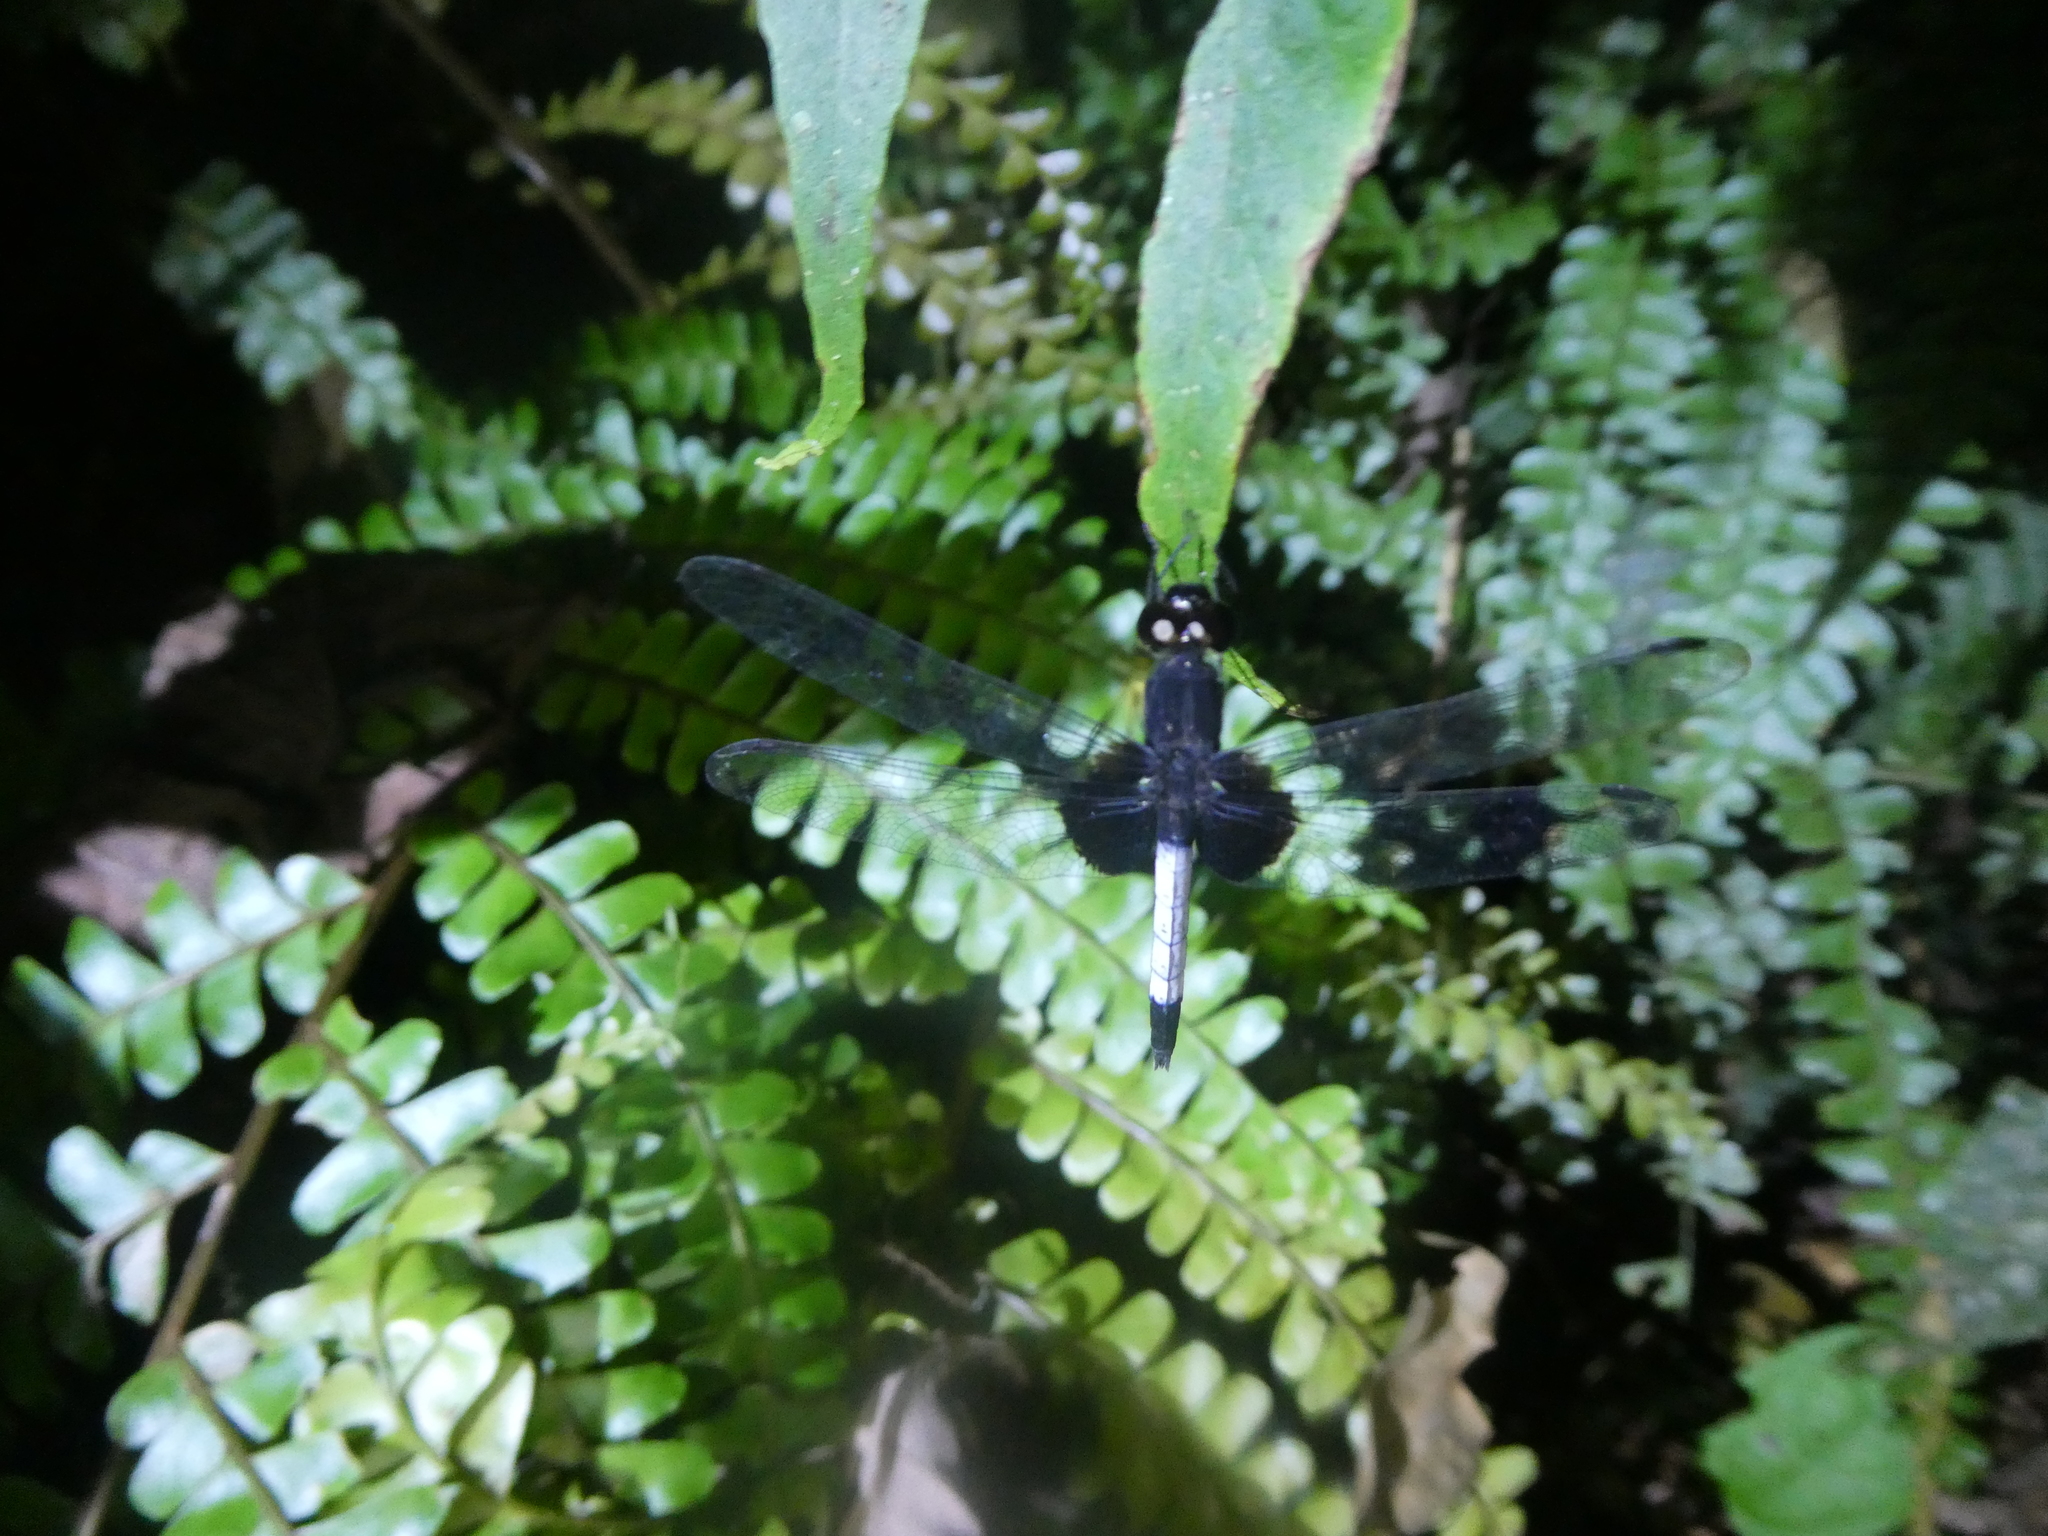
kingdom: Animalia
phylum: Arthropoda
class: Insecta
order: Odonata
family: Libellulidae
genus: Erythrodiplax
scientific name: Erythrodiplax unimaculata
